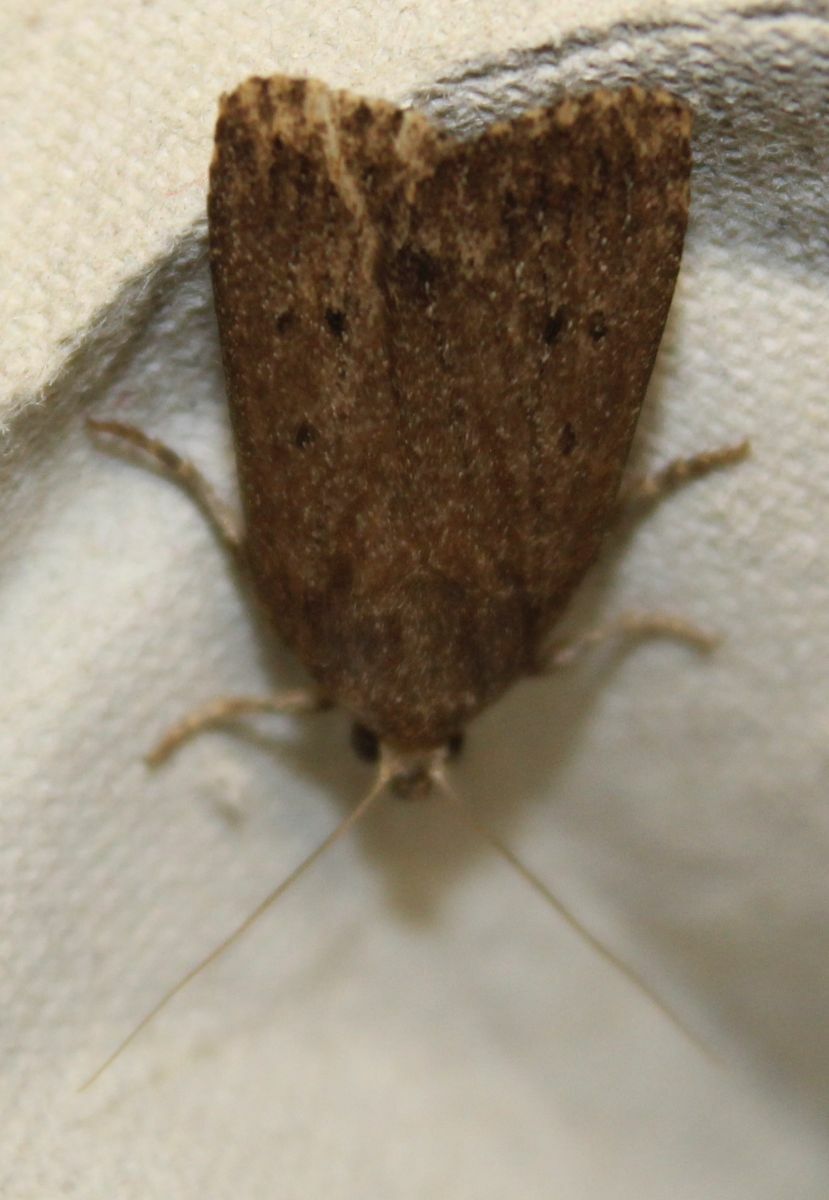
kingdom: Animalia
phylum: Arthropoda
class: Insecta
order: Lepidoptera
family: Noctuidae
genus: Amphipyra
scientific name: Amphipyra tragopoginis
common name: Mouse moth
